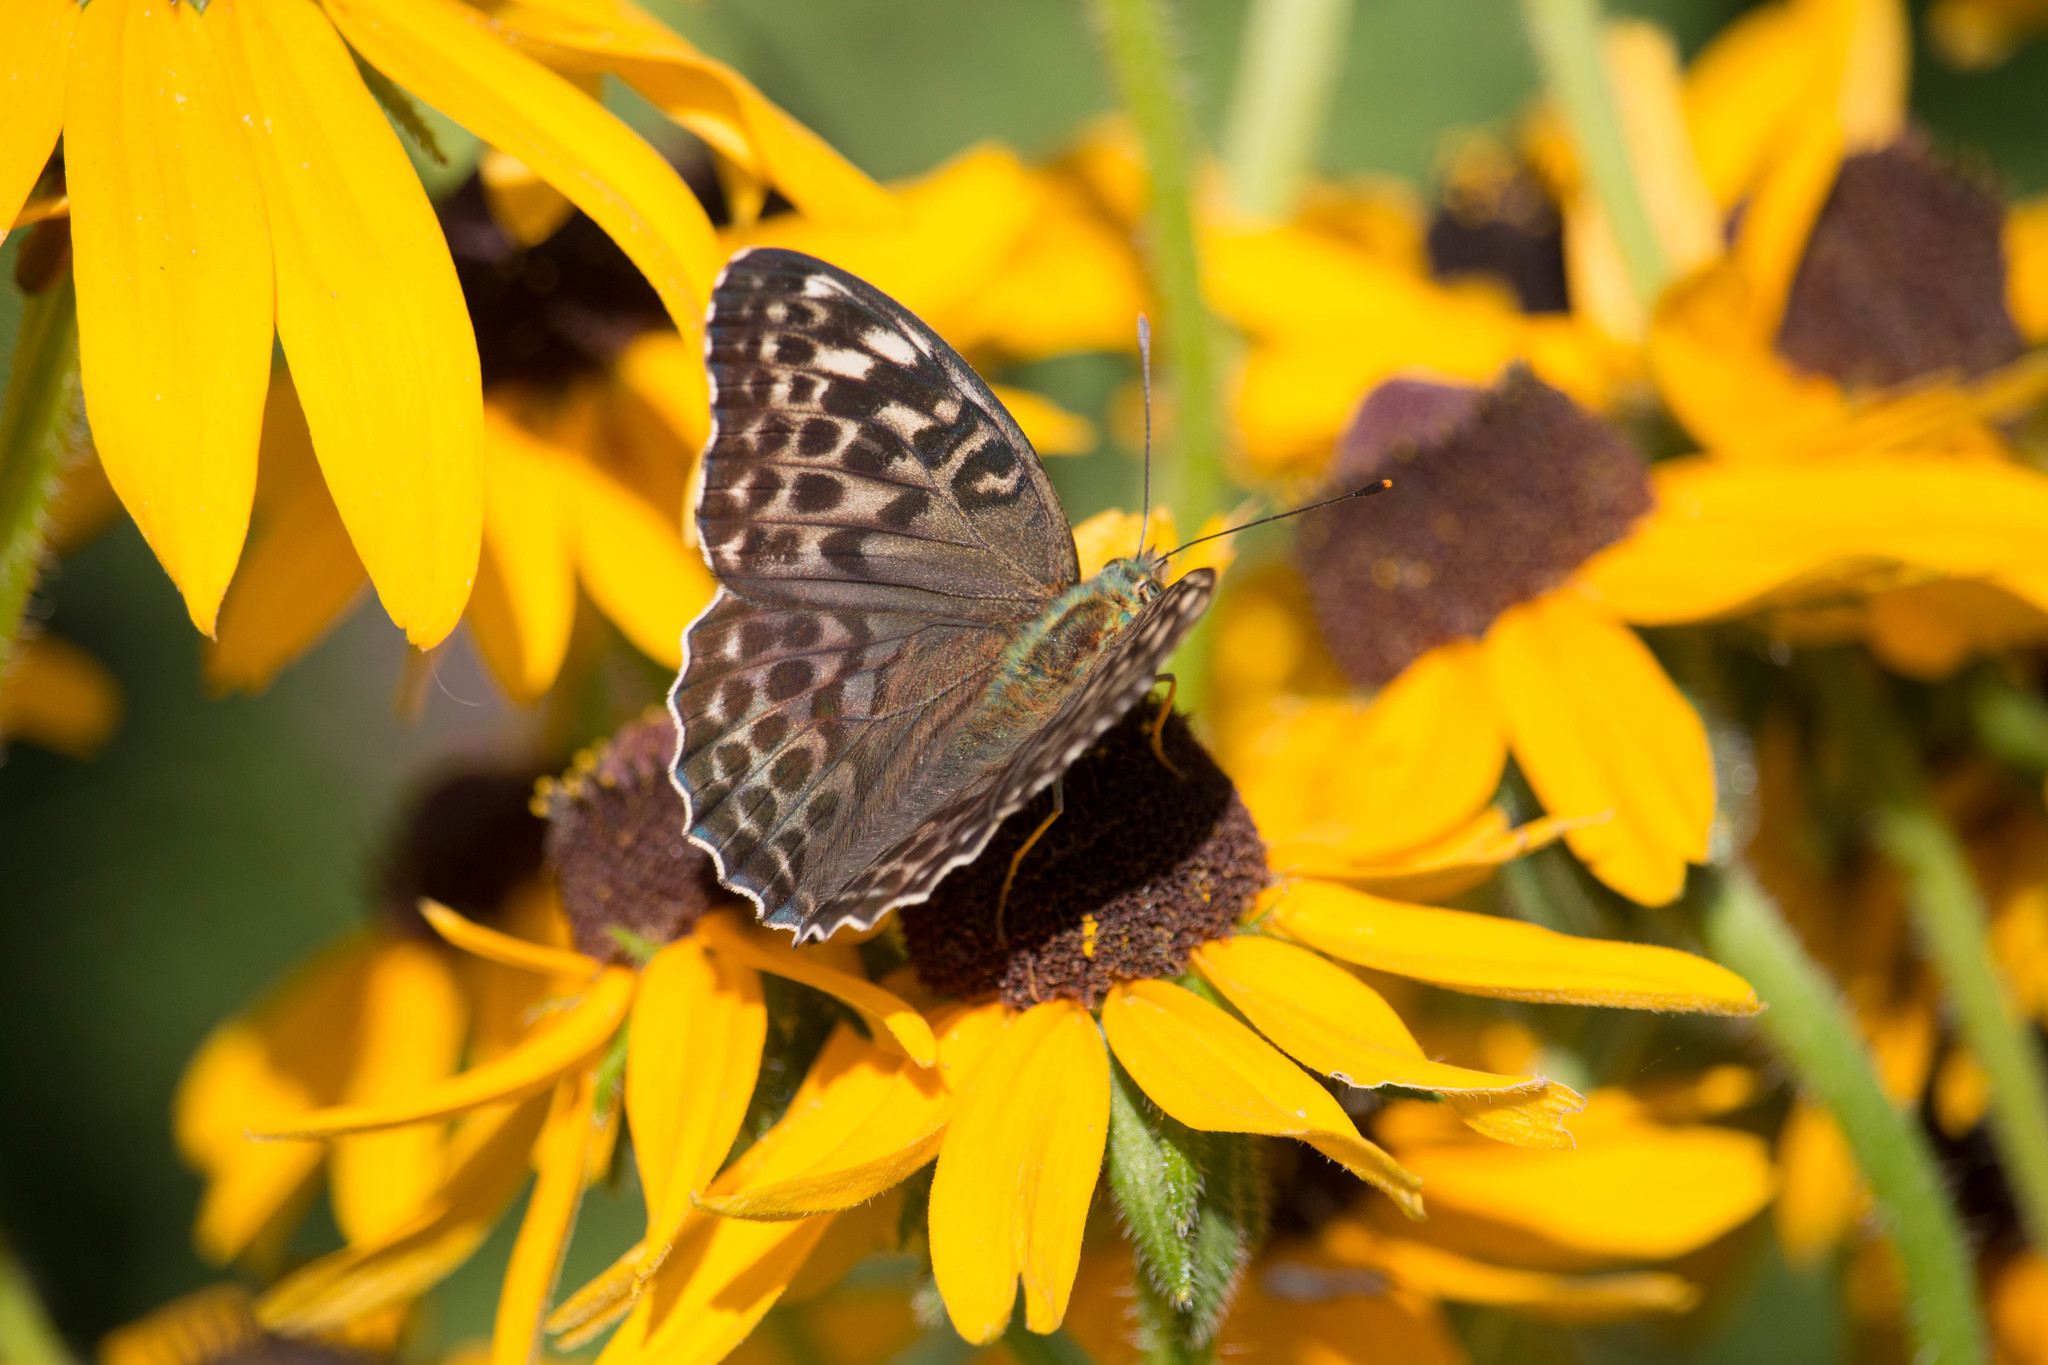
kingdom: Animalia
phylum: Arthropoda
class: Insecta
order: Lepidoptera
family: Nymphalidae
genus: Argynnis
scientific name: Argynnis paphia
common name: Silver-washed fritillary
